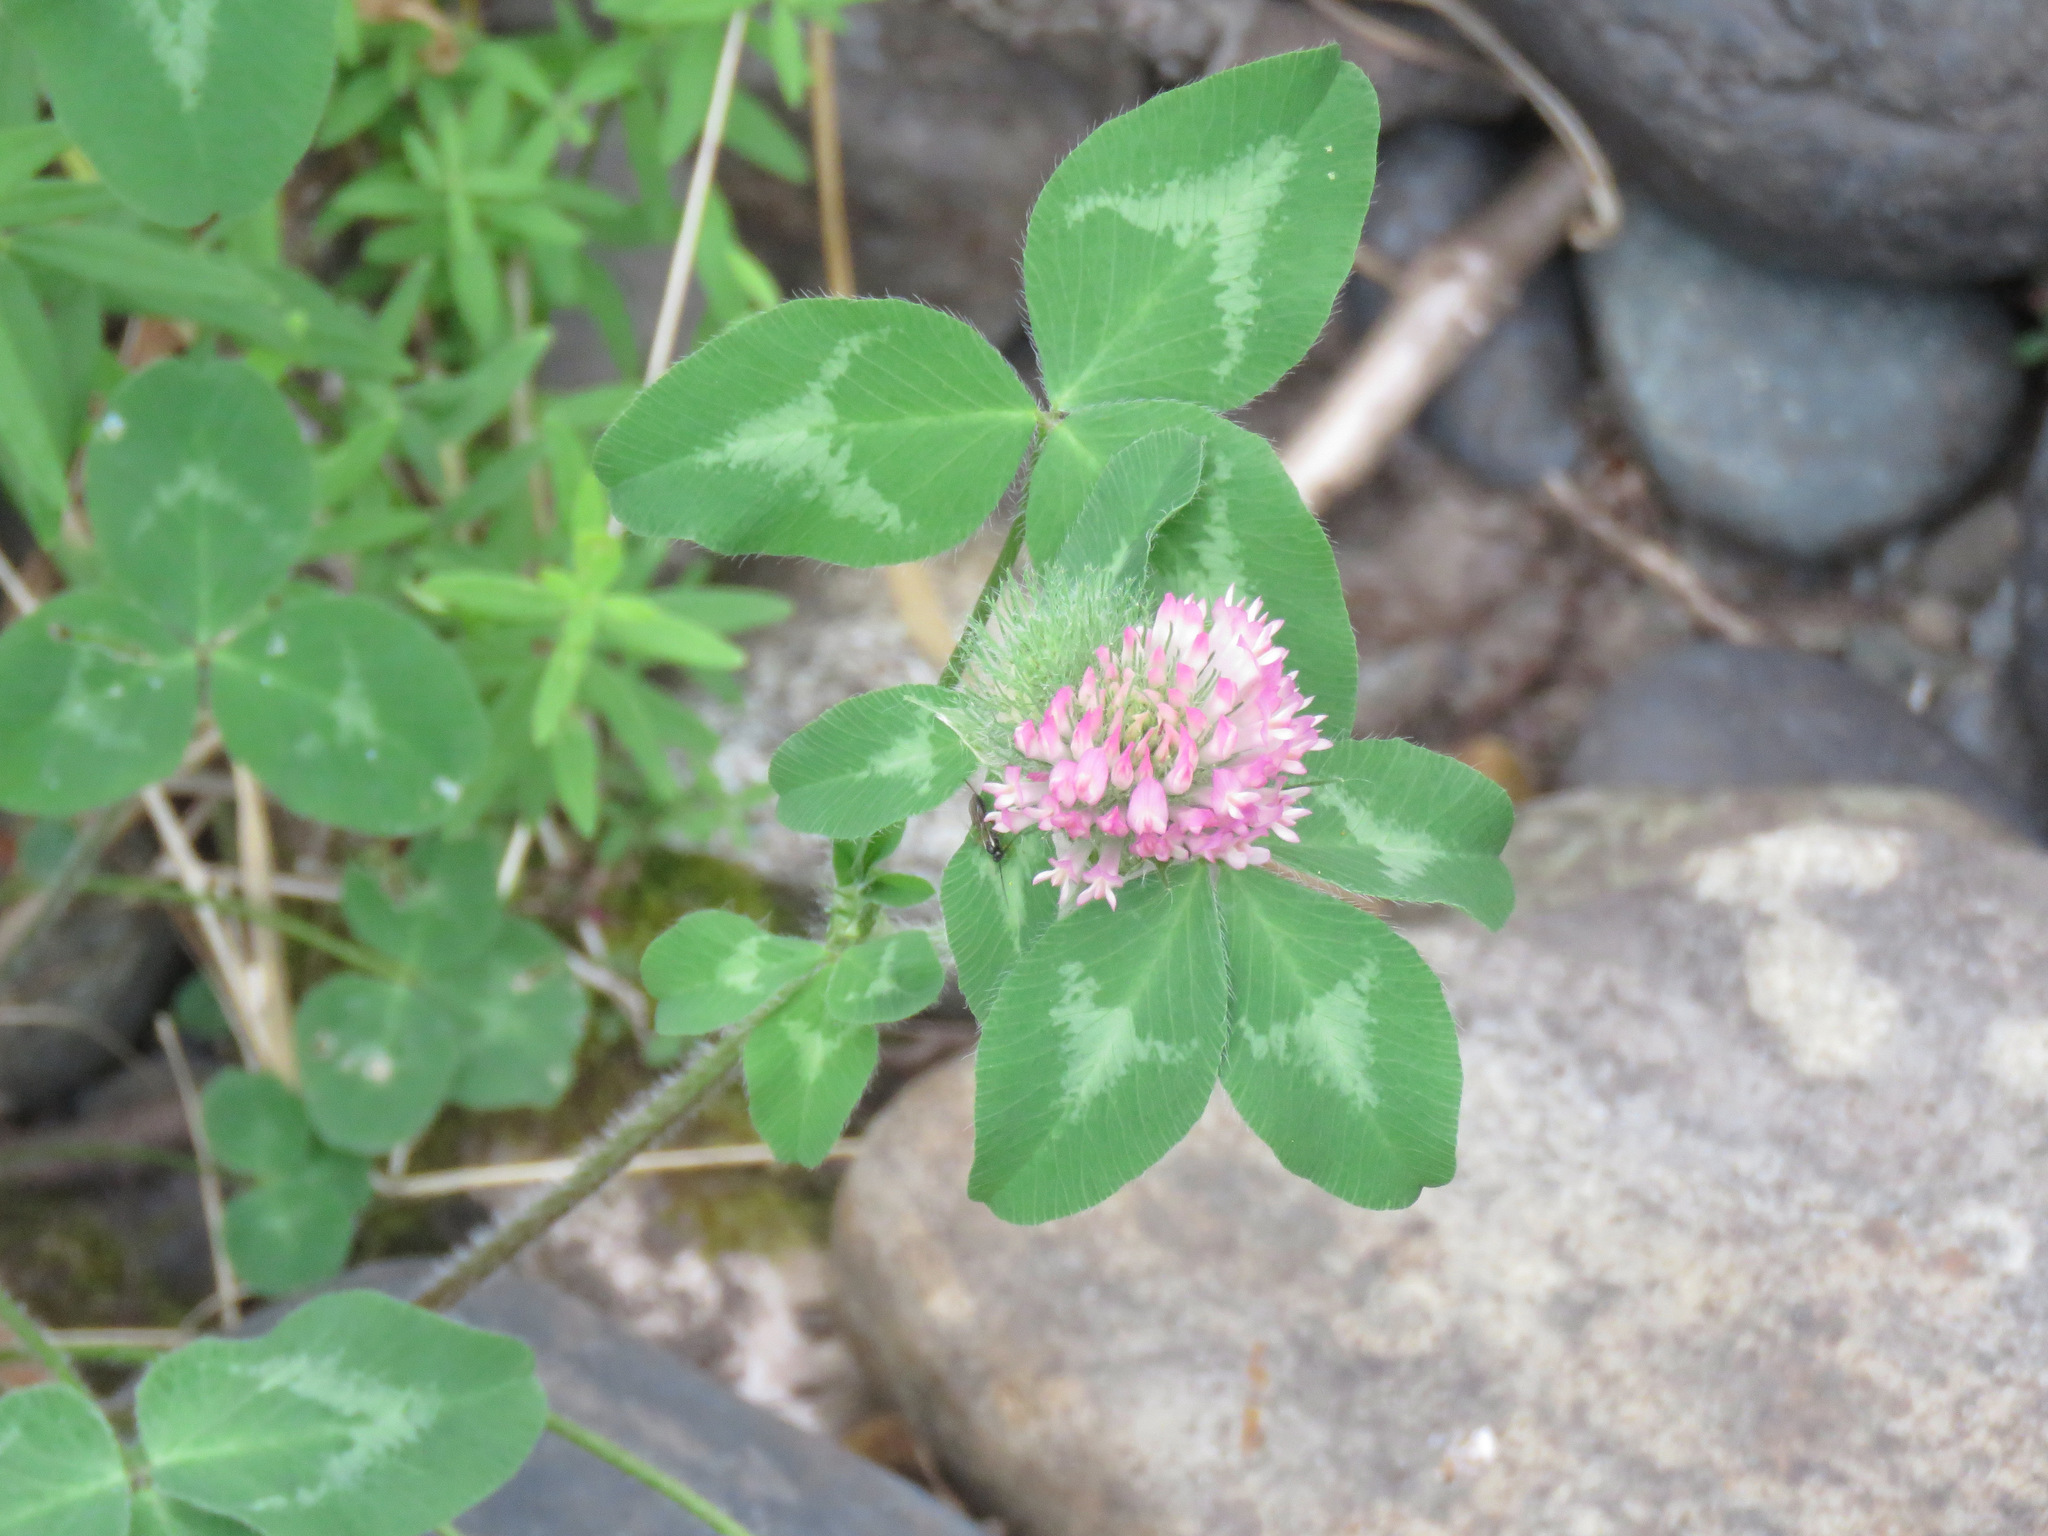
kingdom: Plantae
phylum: Tracheophyta
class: Magnoliopsida
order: Fabales
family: Fabaceae
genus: Trifolium
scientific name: Trifolium pratense
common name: Red clover
